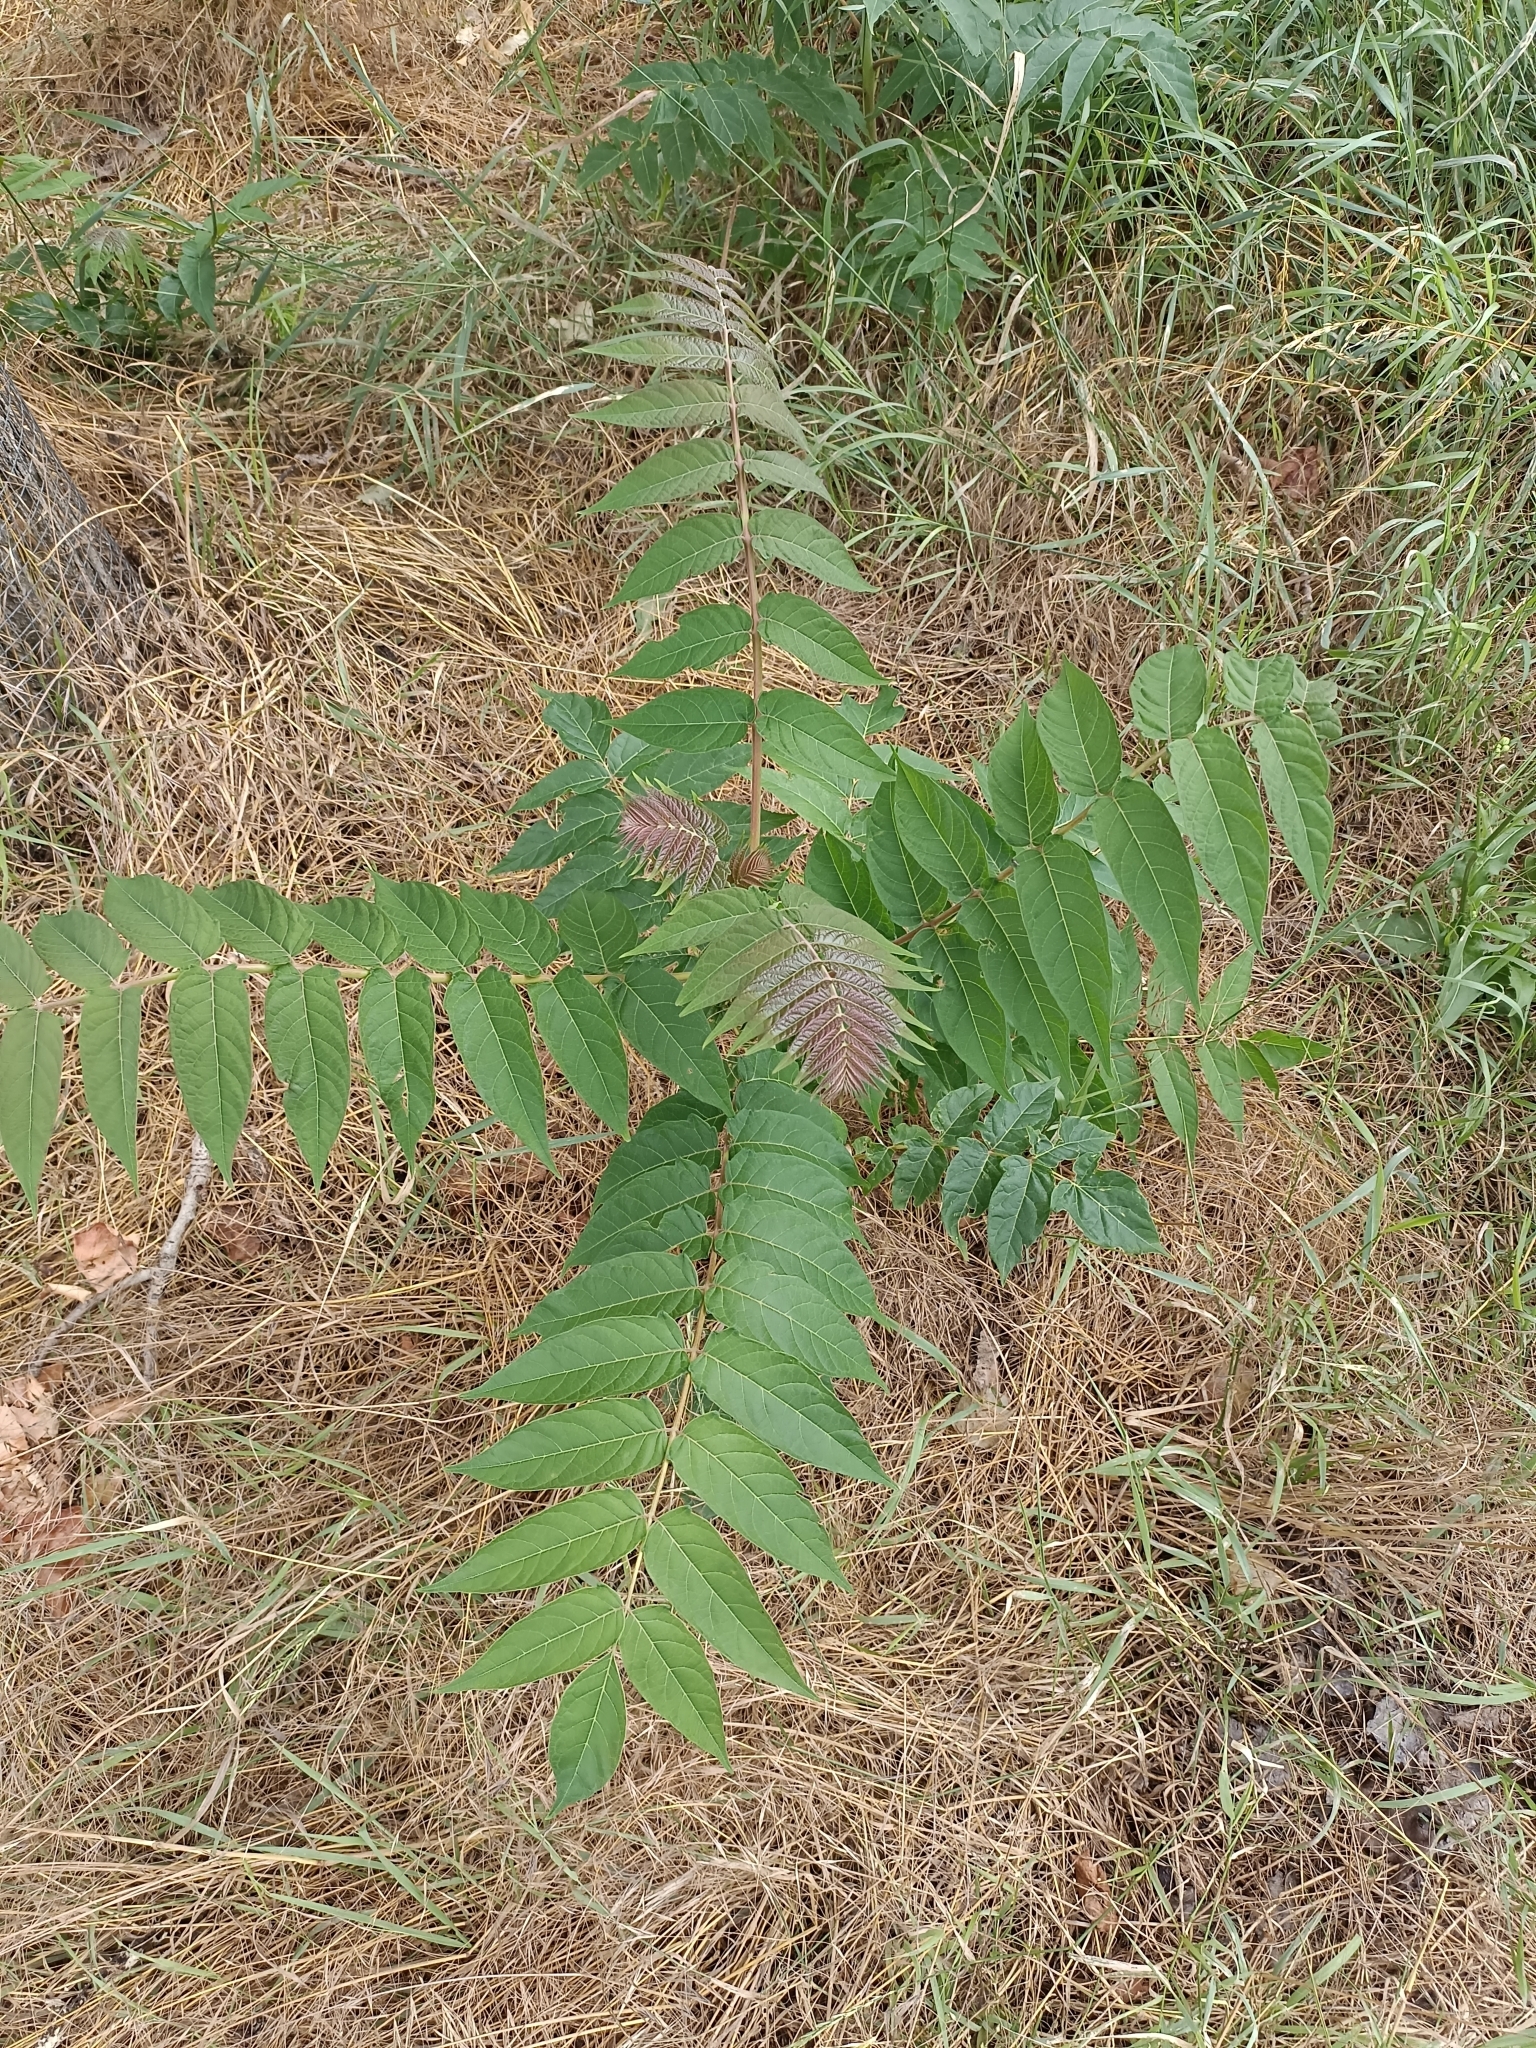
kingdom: Plantae
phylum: Tracheophyta
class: Magnoliopsida
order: Sapindales
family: Simaroubaceae
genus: Ailanthus
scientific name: Ailanthus altissima
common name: Tree-of-heaven
